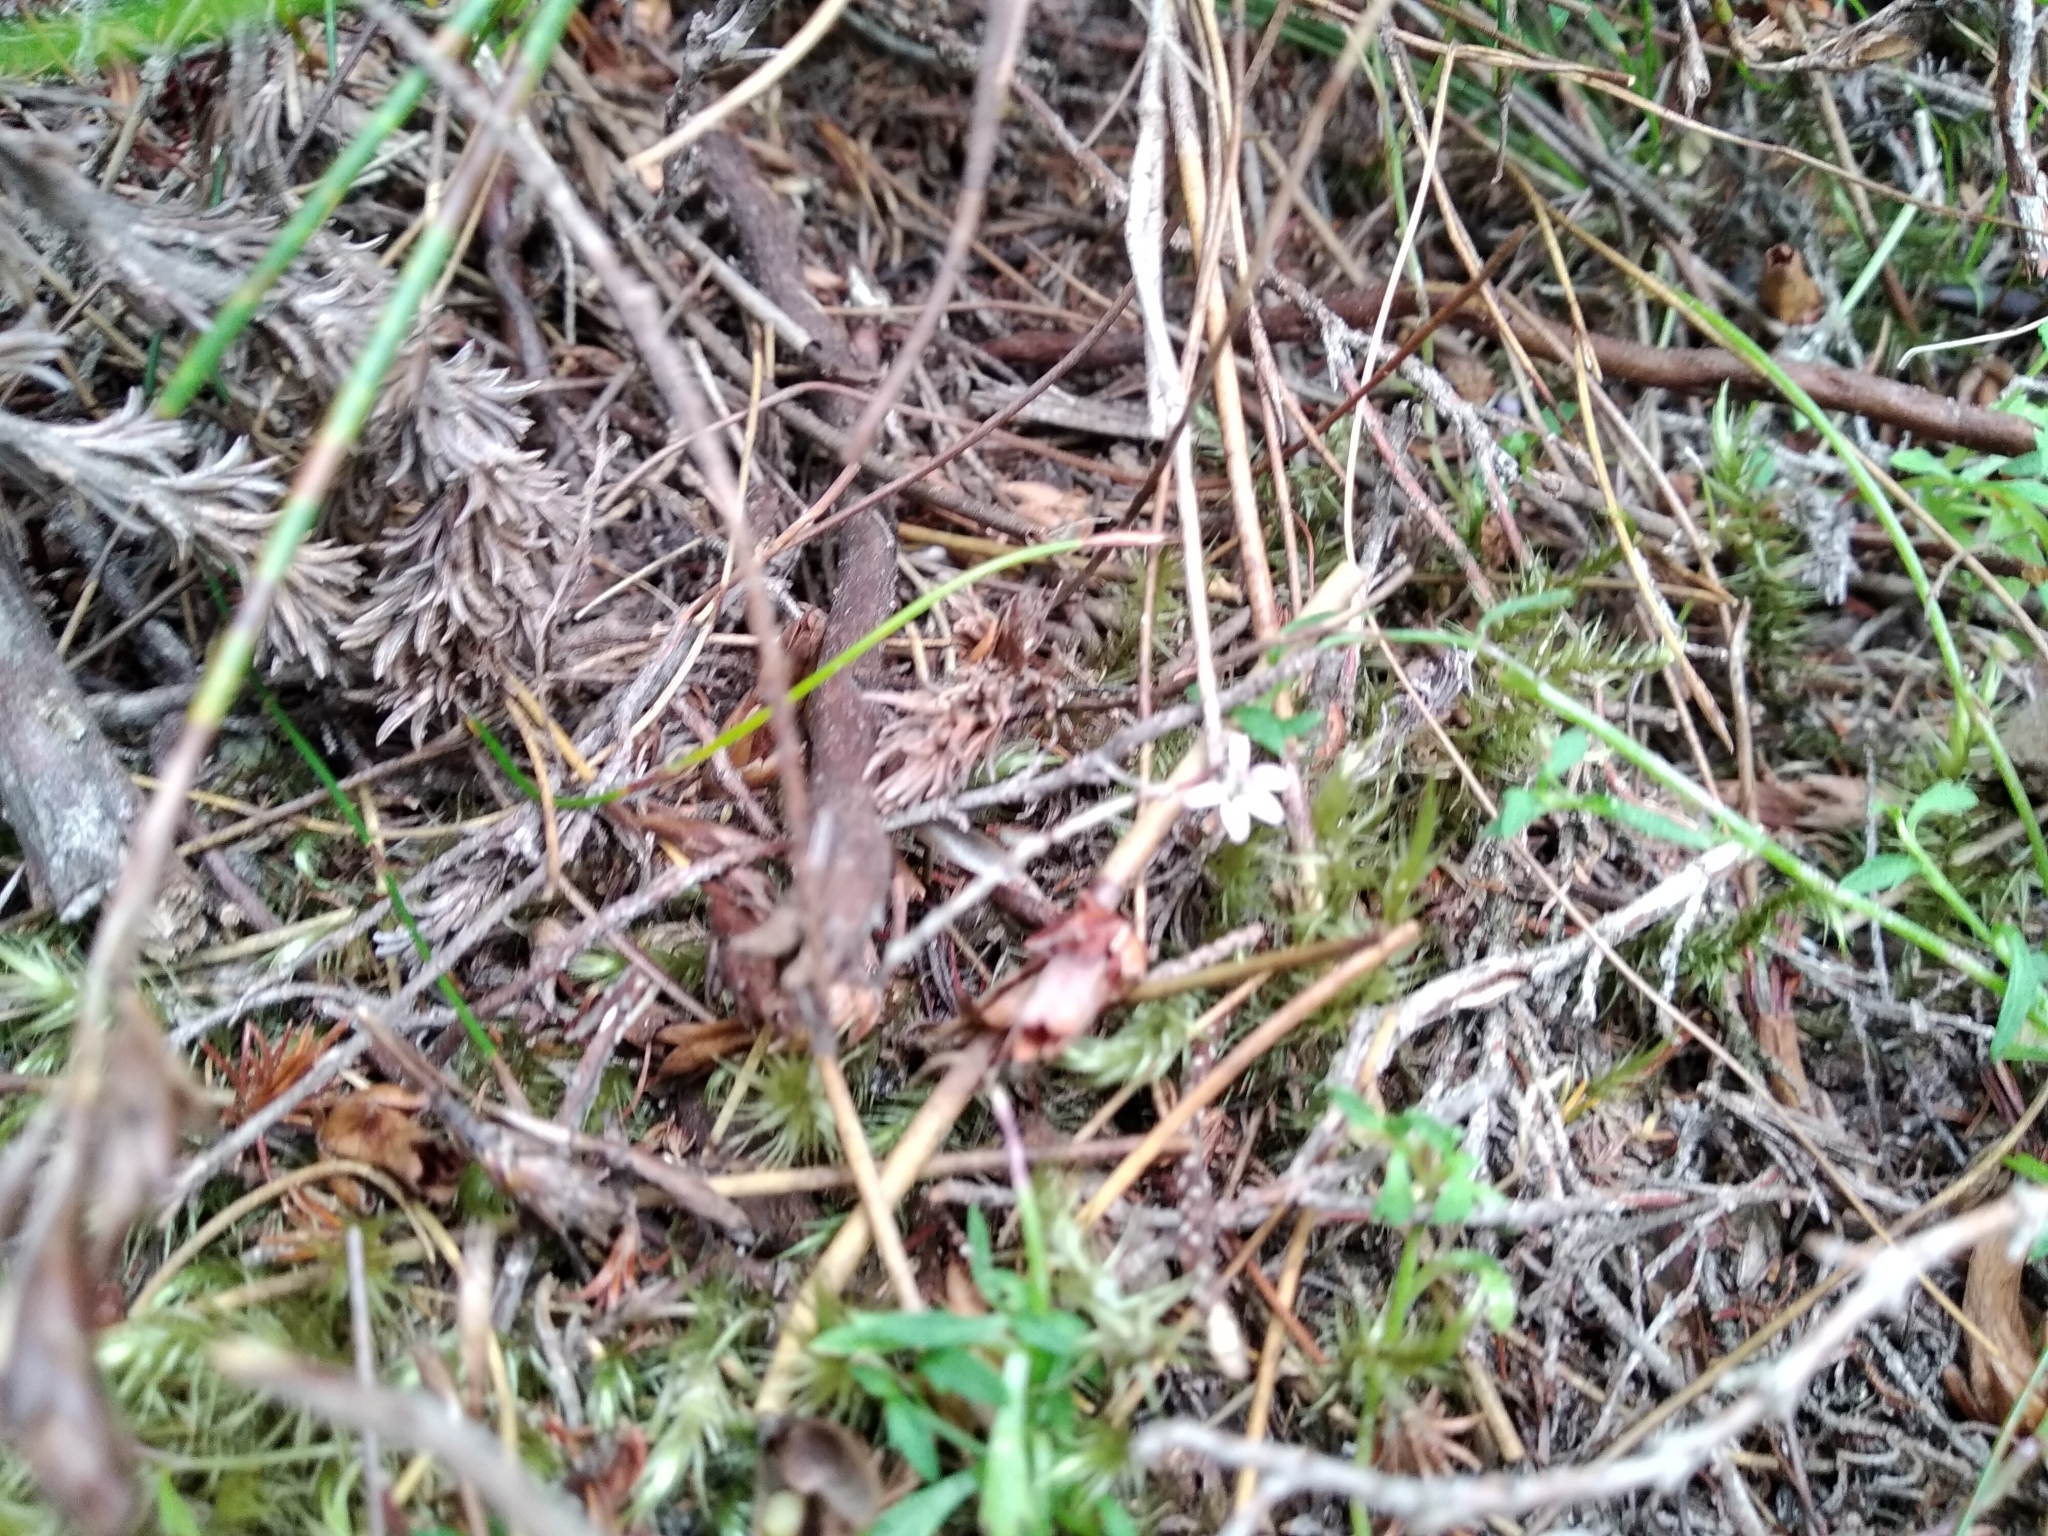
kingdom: Plantae
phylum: Tracheophyta
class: Magnoliopsida
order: Asterales
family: Campanulaceae
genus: Lobelia
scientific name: Lobelia eckloniana
